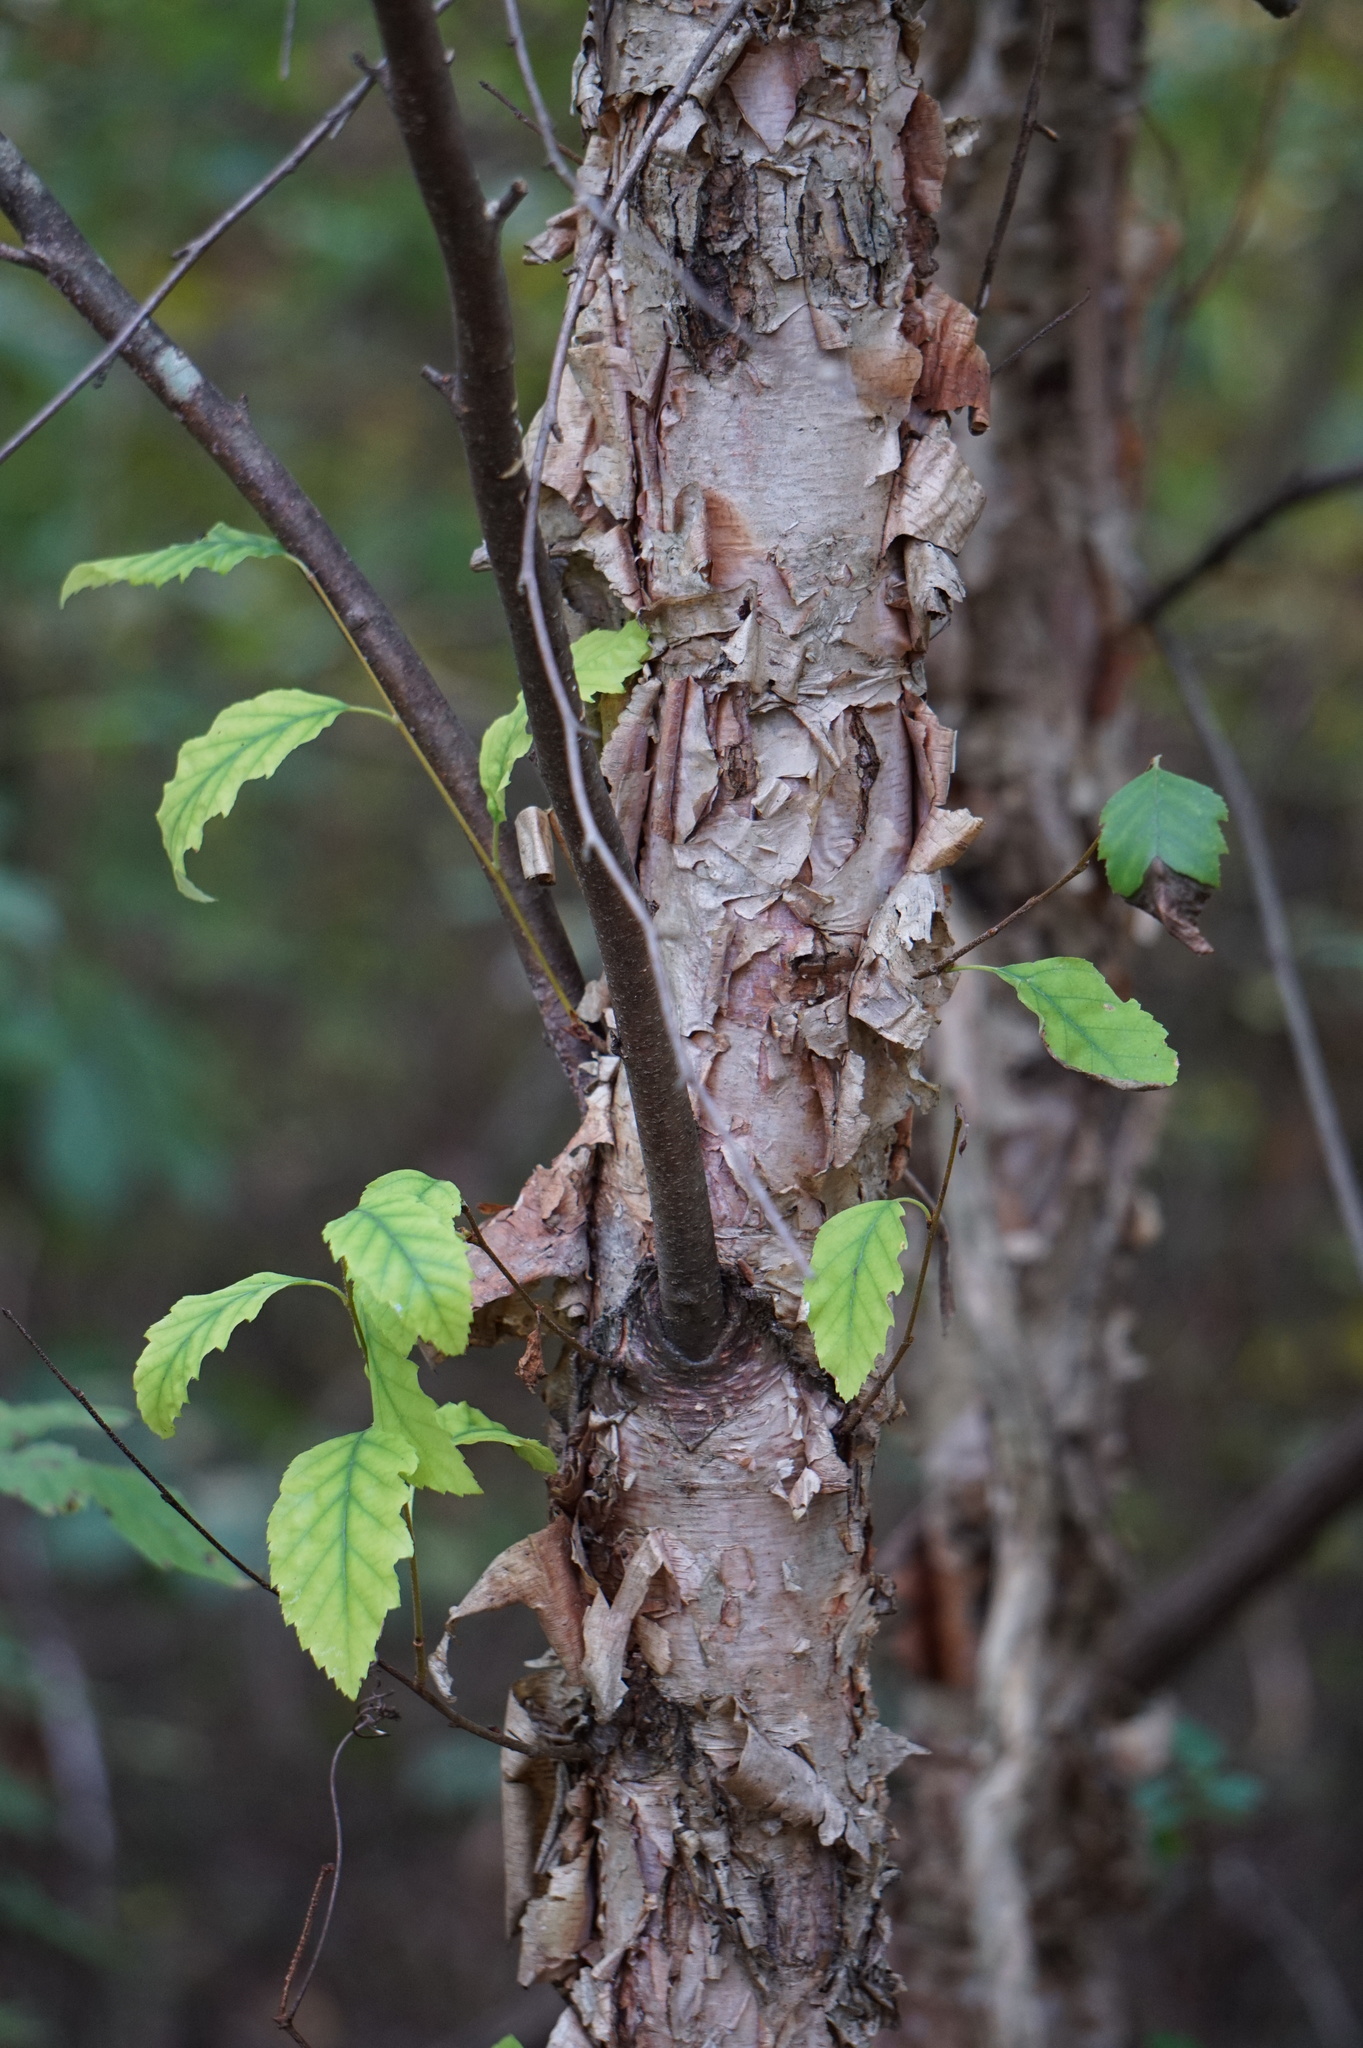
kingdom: Plantae
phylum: Tracheophyta
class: Magnoliopsida
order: Fagales
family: Betulaceae
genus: Betula
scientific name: Betula nigra
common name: Black birch
